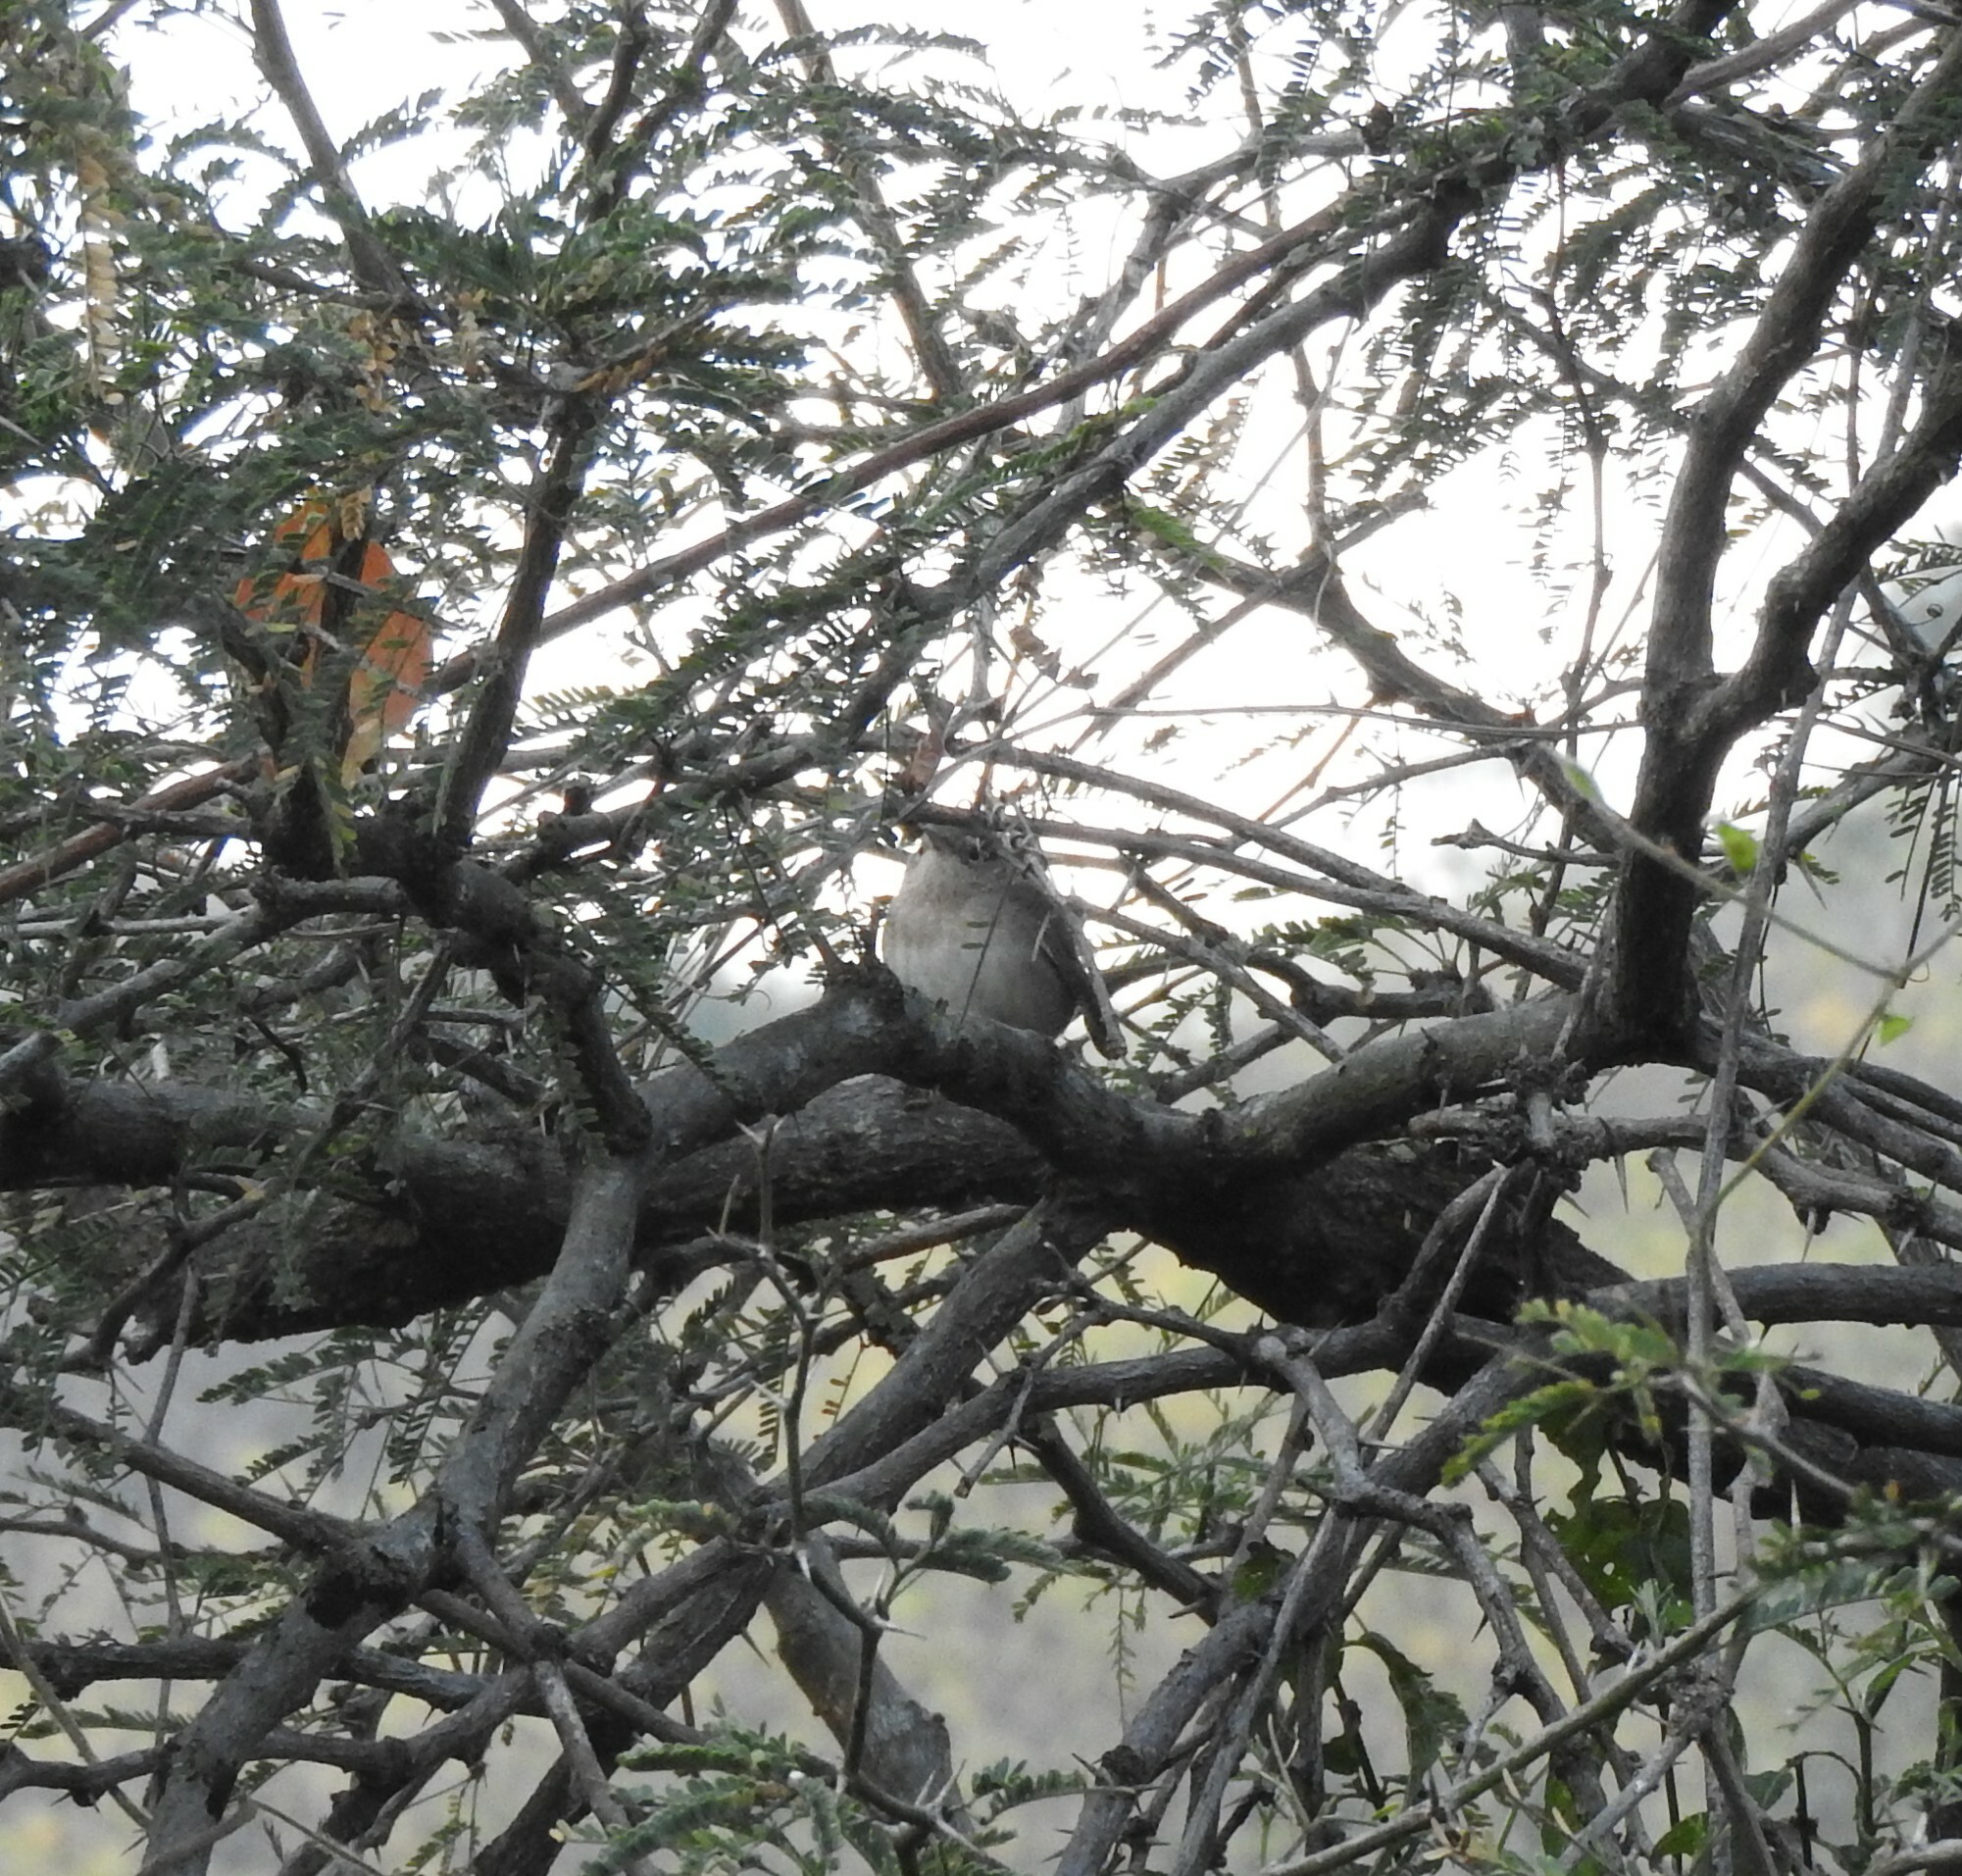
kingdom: Animalia
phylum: Chordata
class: Aves
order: Passeriformes
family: Troglodytidae
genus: Troglodytes
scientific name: Troglodytes aedon
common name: House wren
